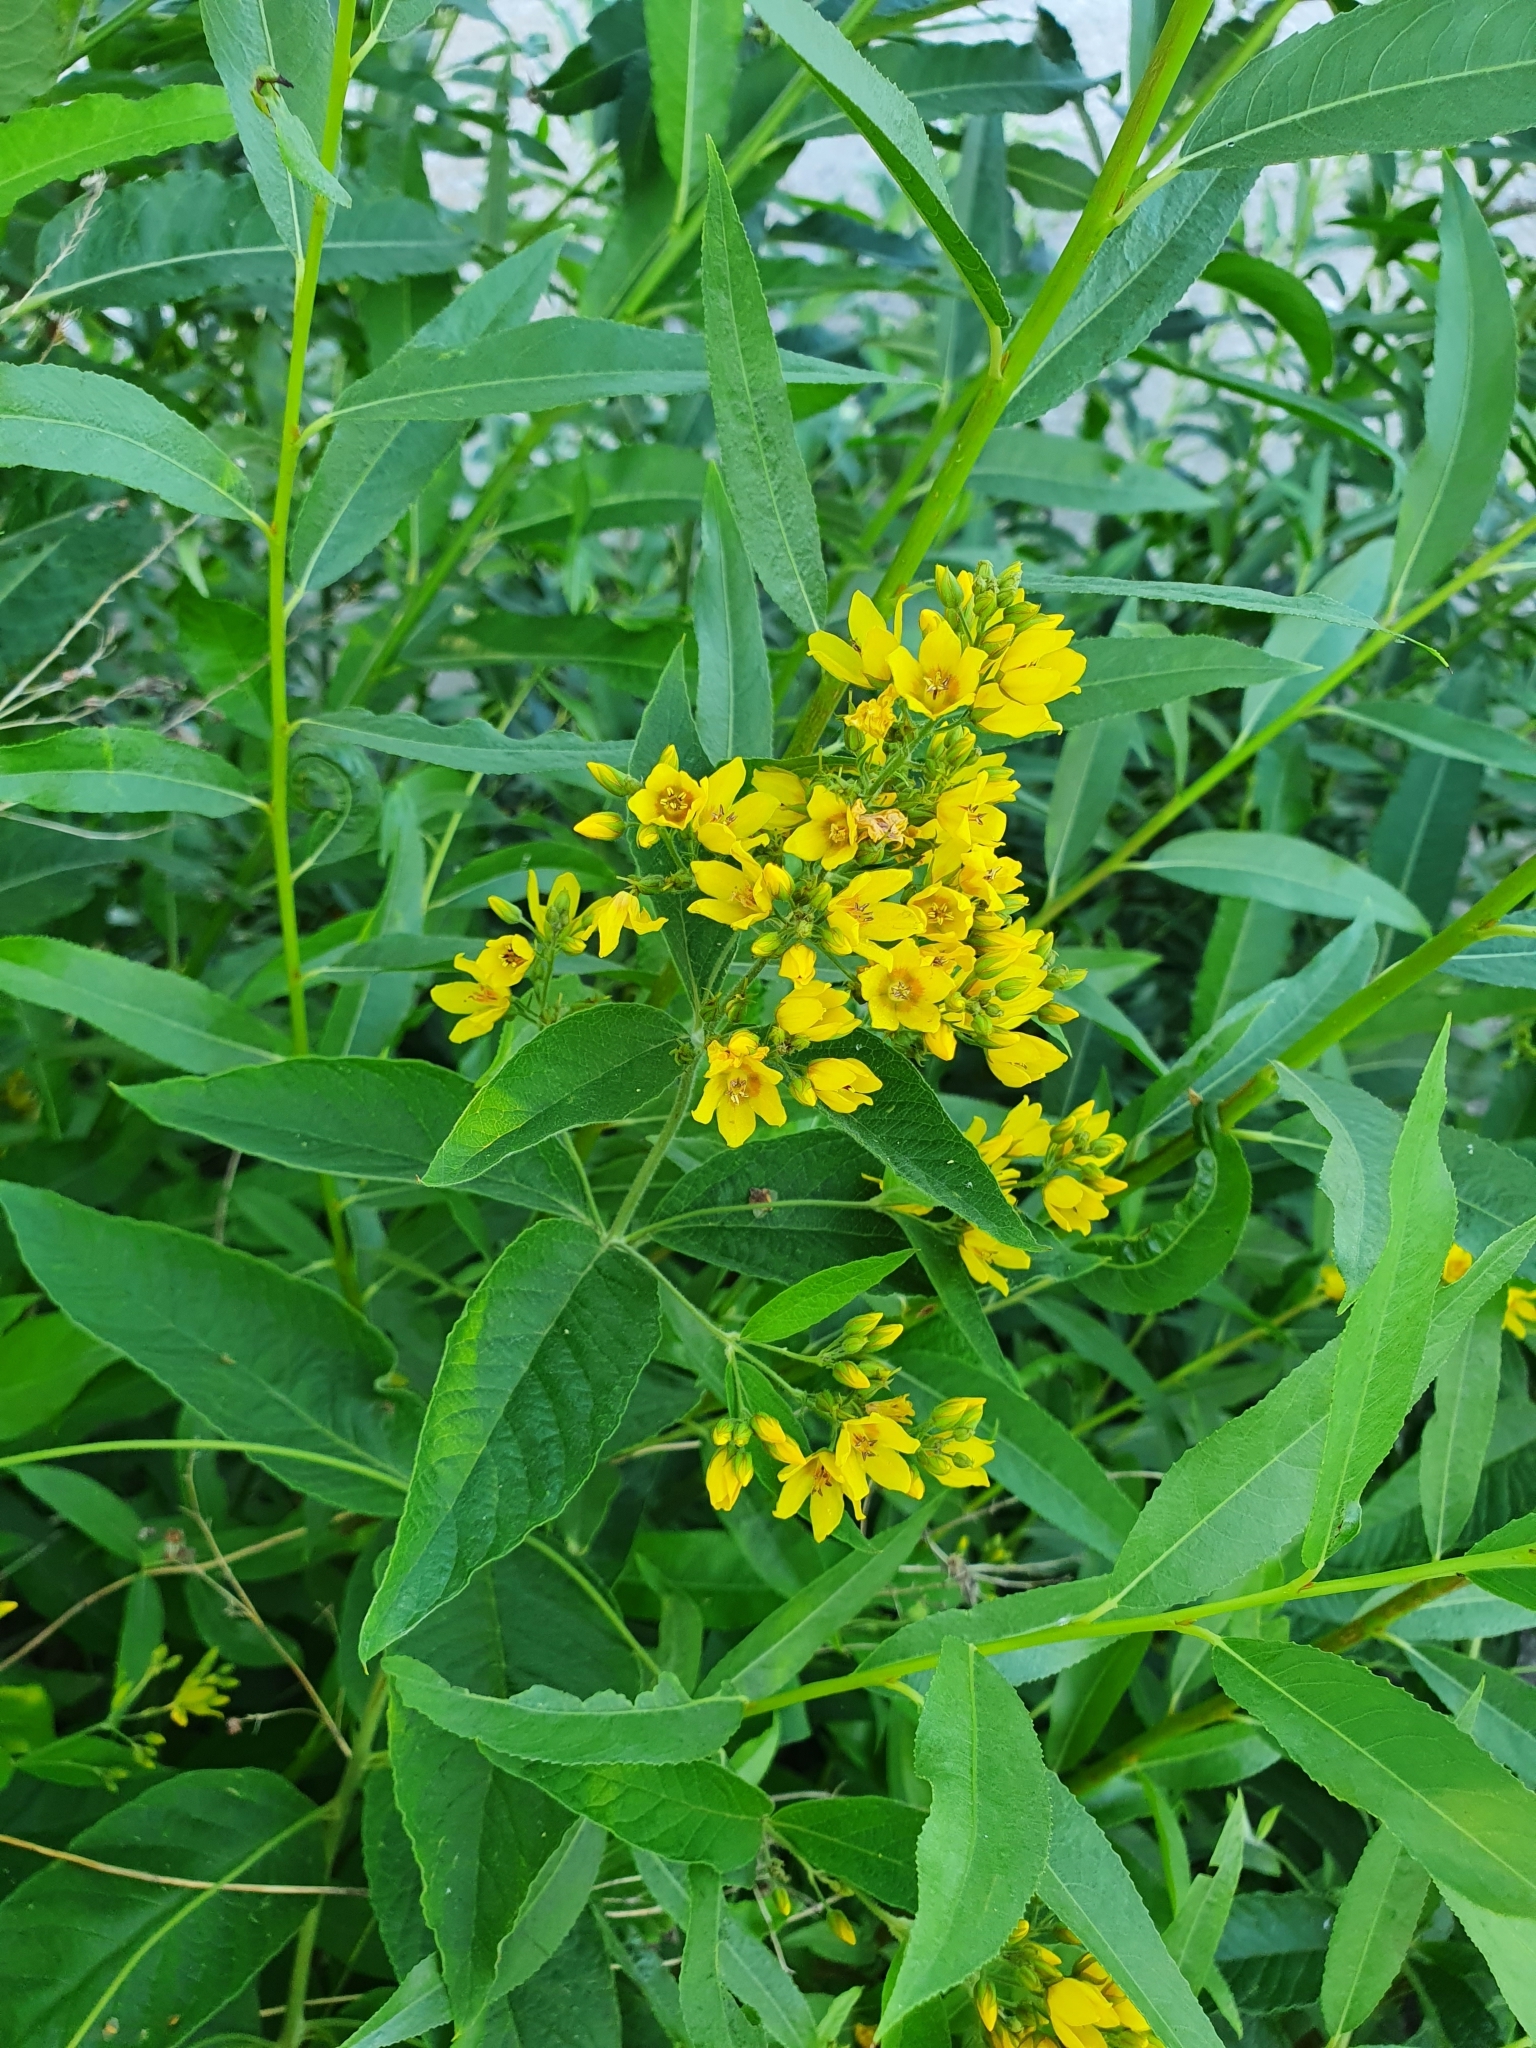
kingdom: Plantae
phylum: Tracheophyta
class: Magnoliopsida
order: Ericales
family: Primulaceae
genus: Lysimachia
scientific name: Lysimachia vulgaris
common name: Yellow loosestrife
